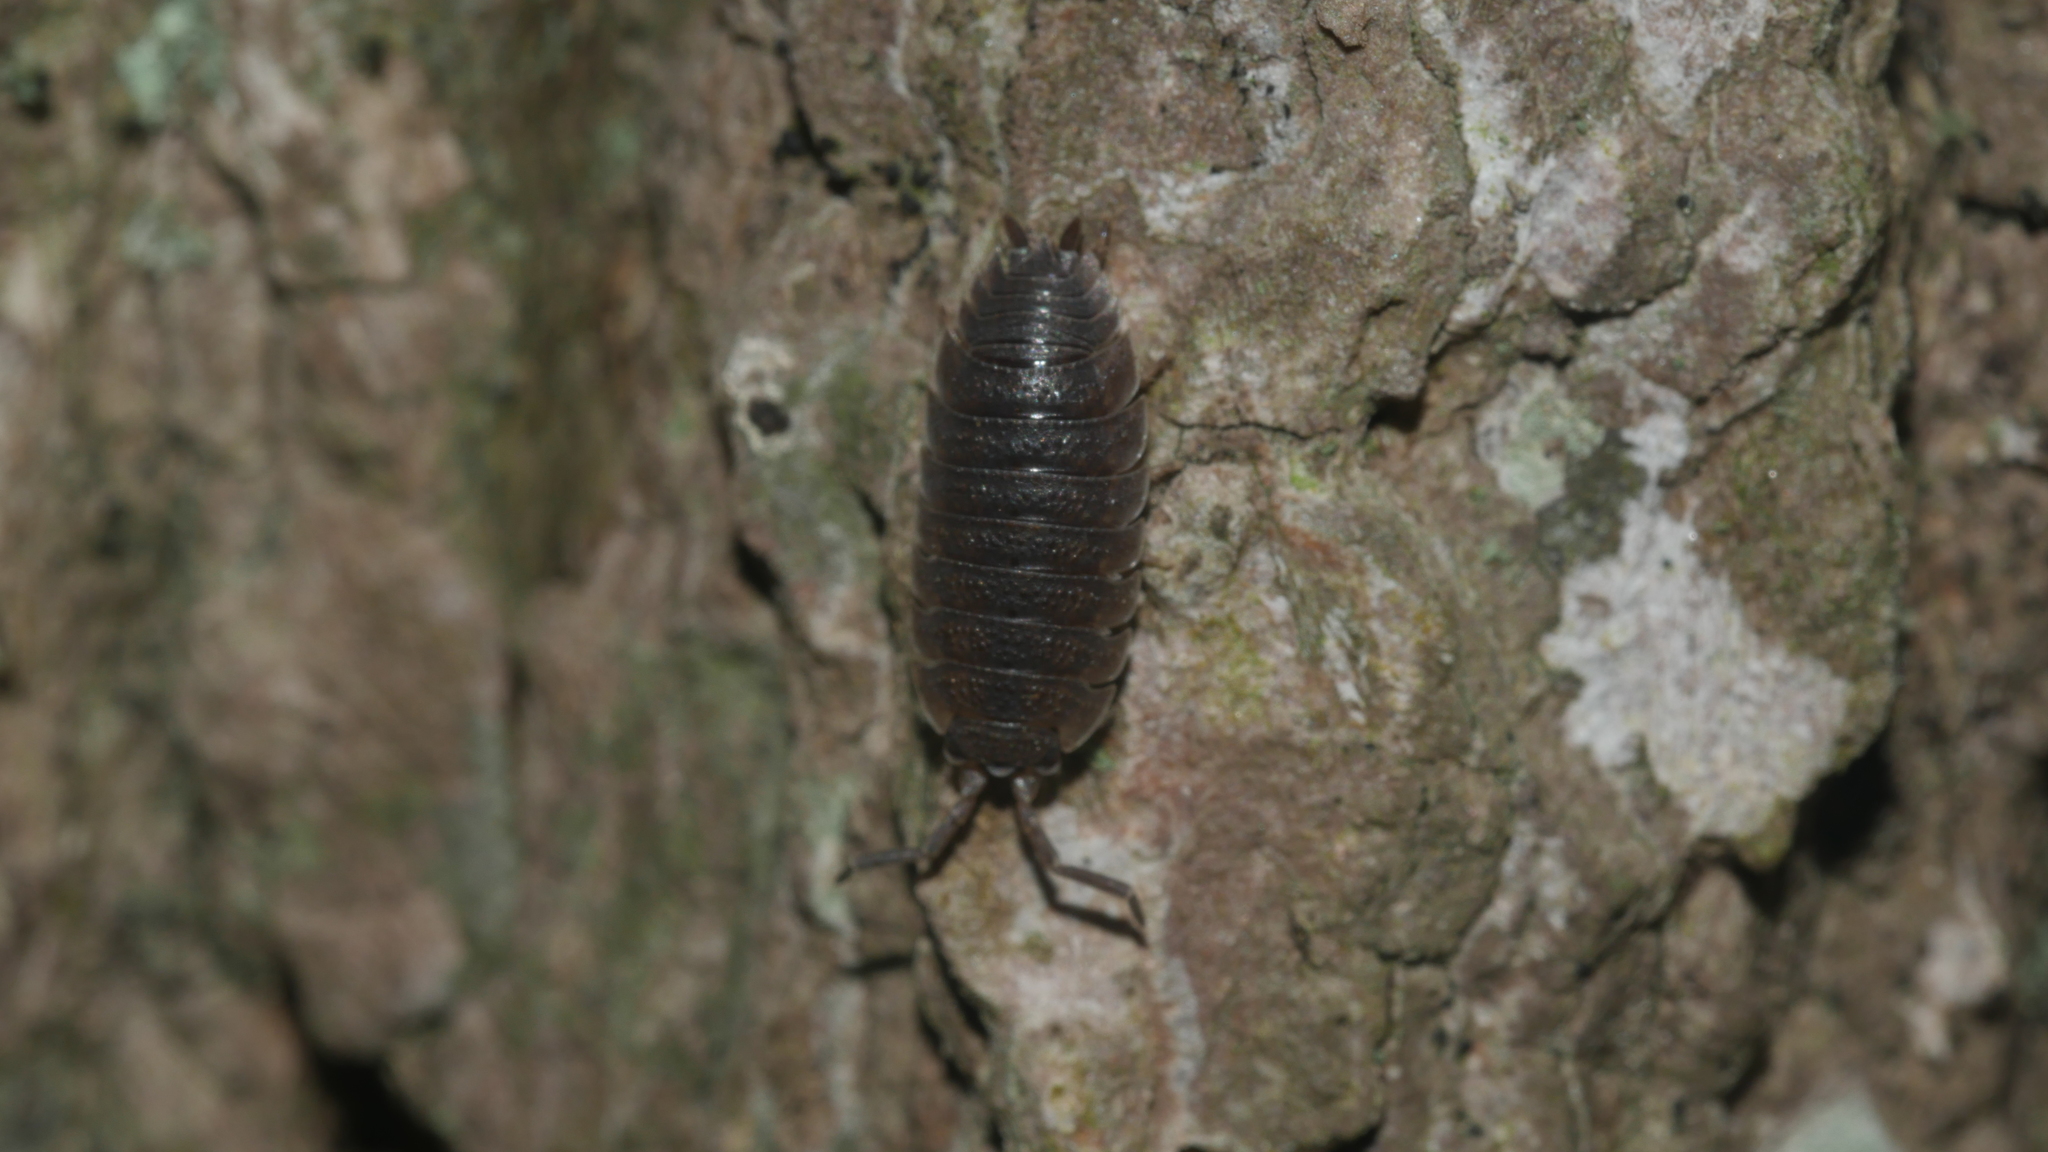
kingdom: Animalia
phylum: Arthropoda
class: Malacostraca
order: Isopoda
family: Porcellionidae
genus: Porcellio
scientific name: Porcellio scaber
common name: Common rough woodlouse
